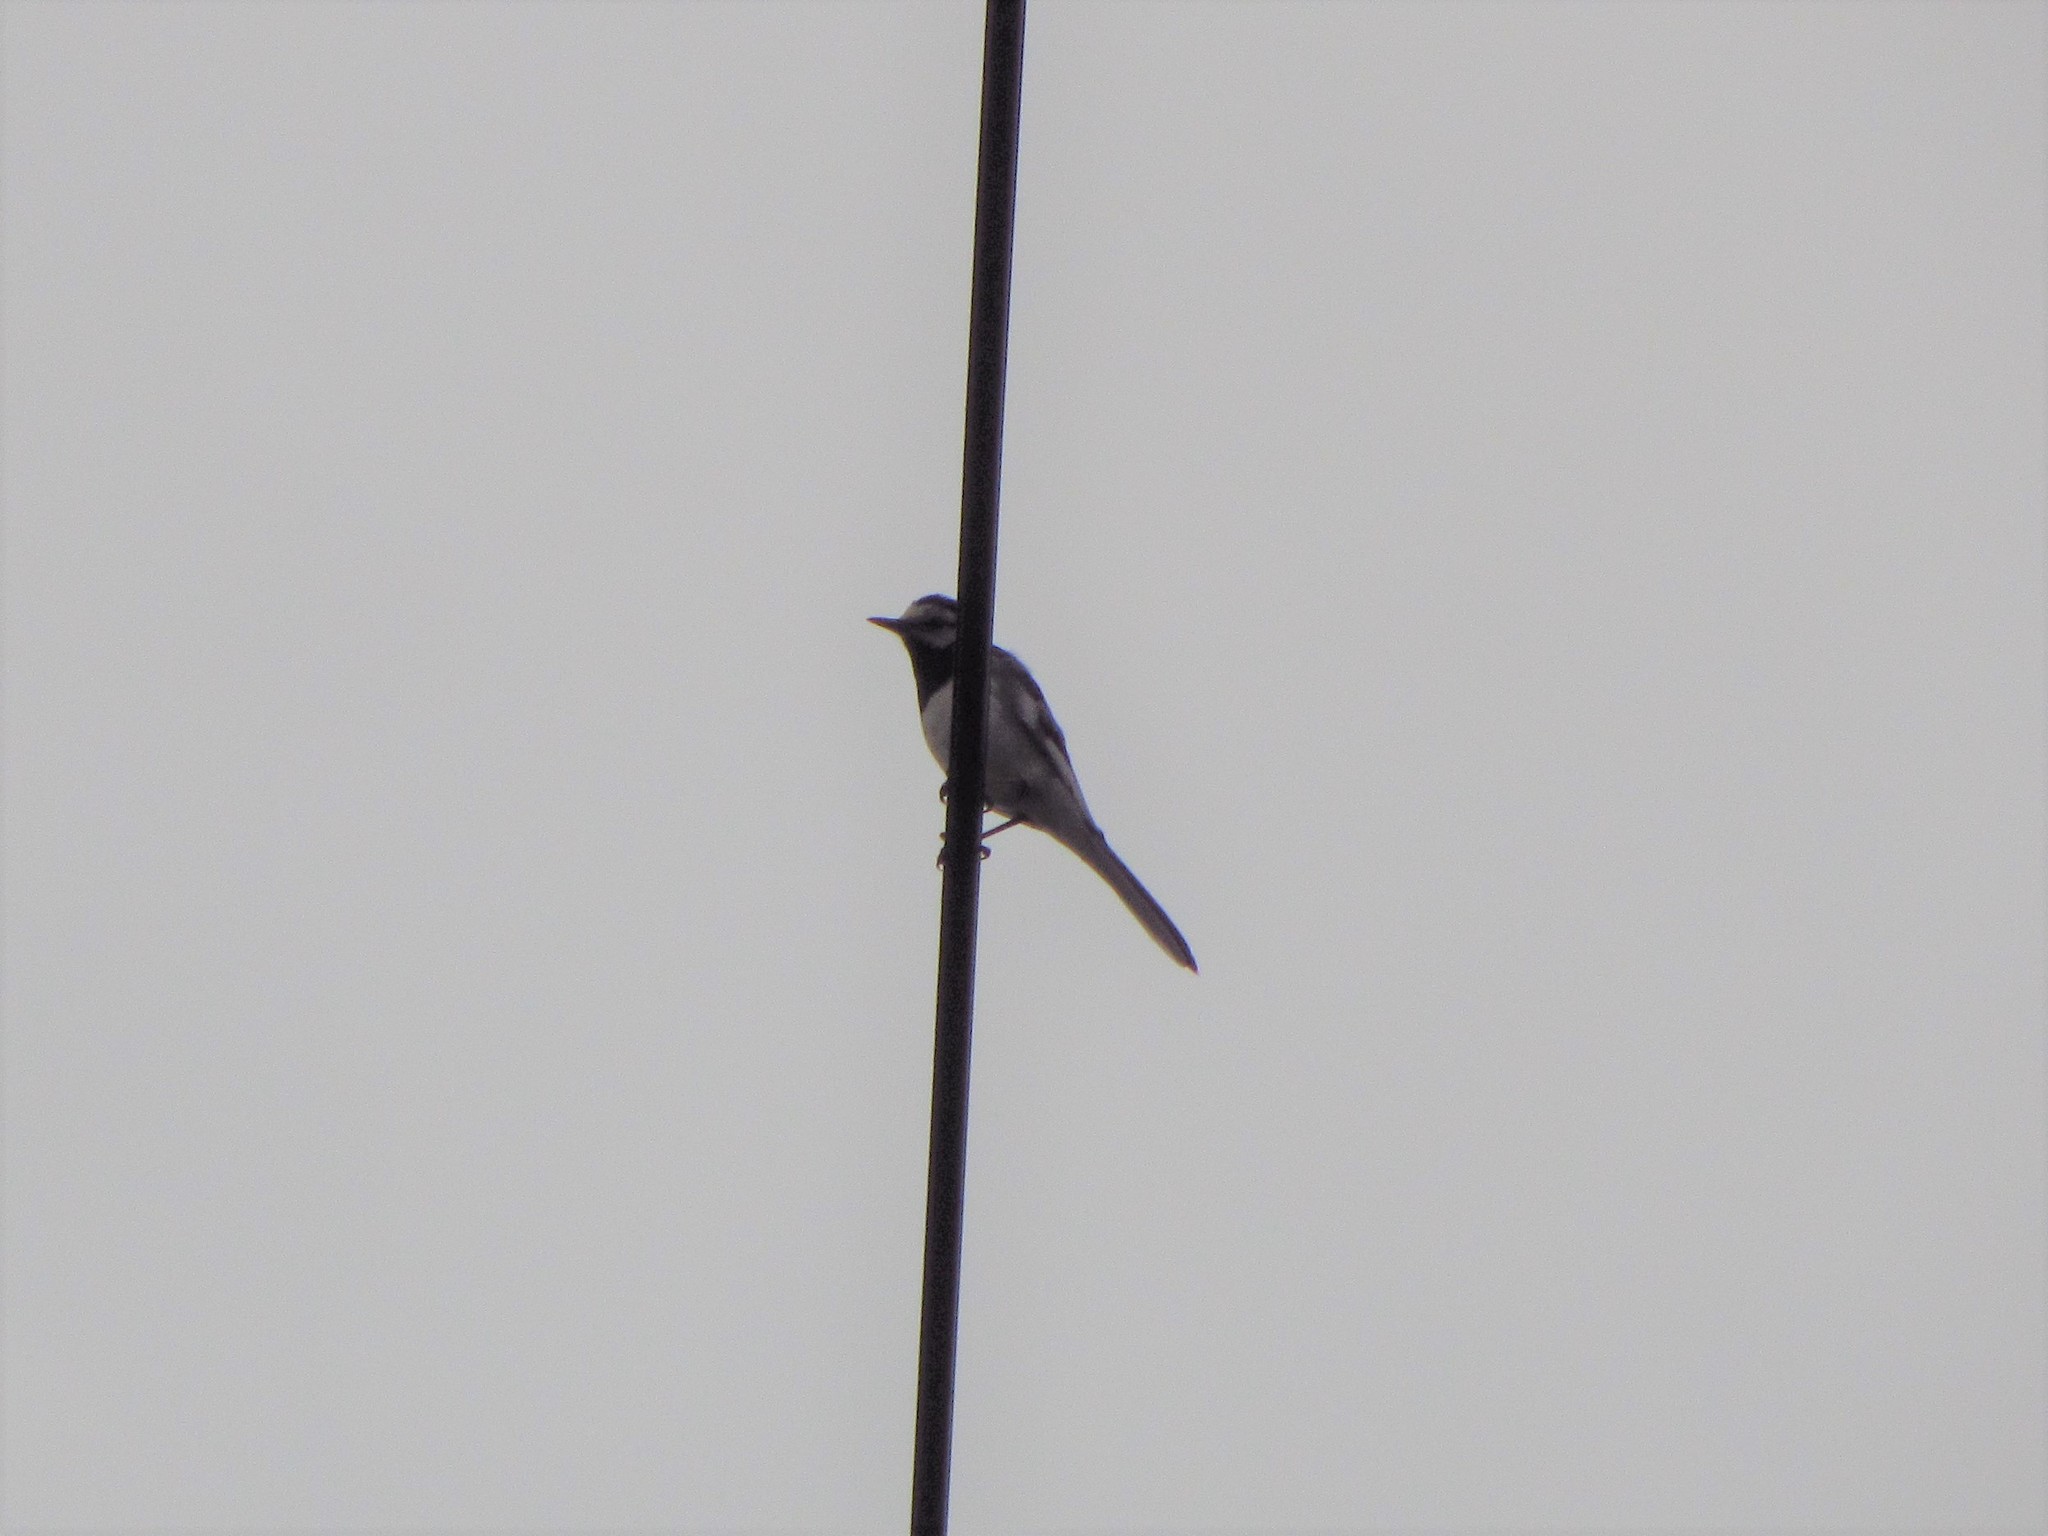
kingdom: Animalia
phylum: Chordata
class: Aves
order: Passeriformes
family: Motacillidae
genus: Motacilla
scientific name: Motacilla alba
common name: White wagtail
